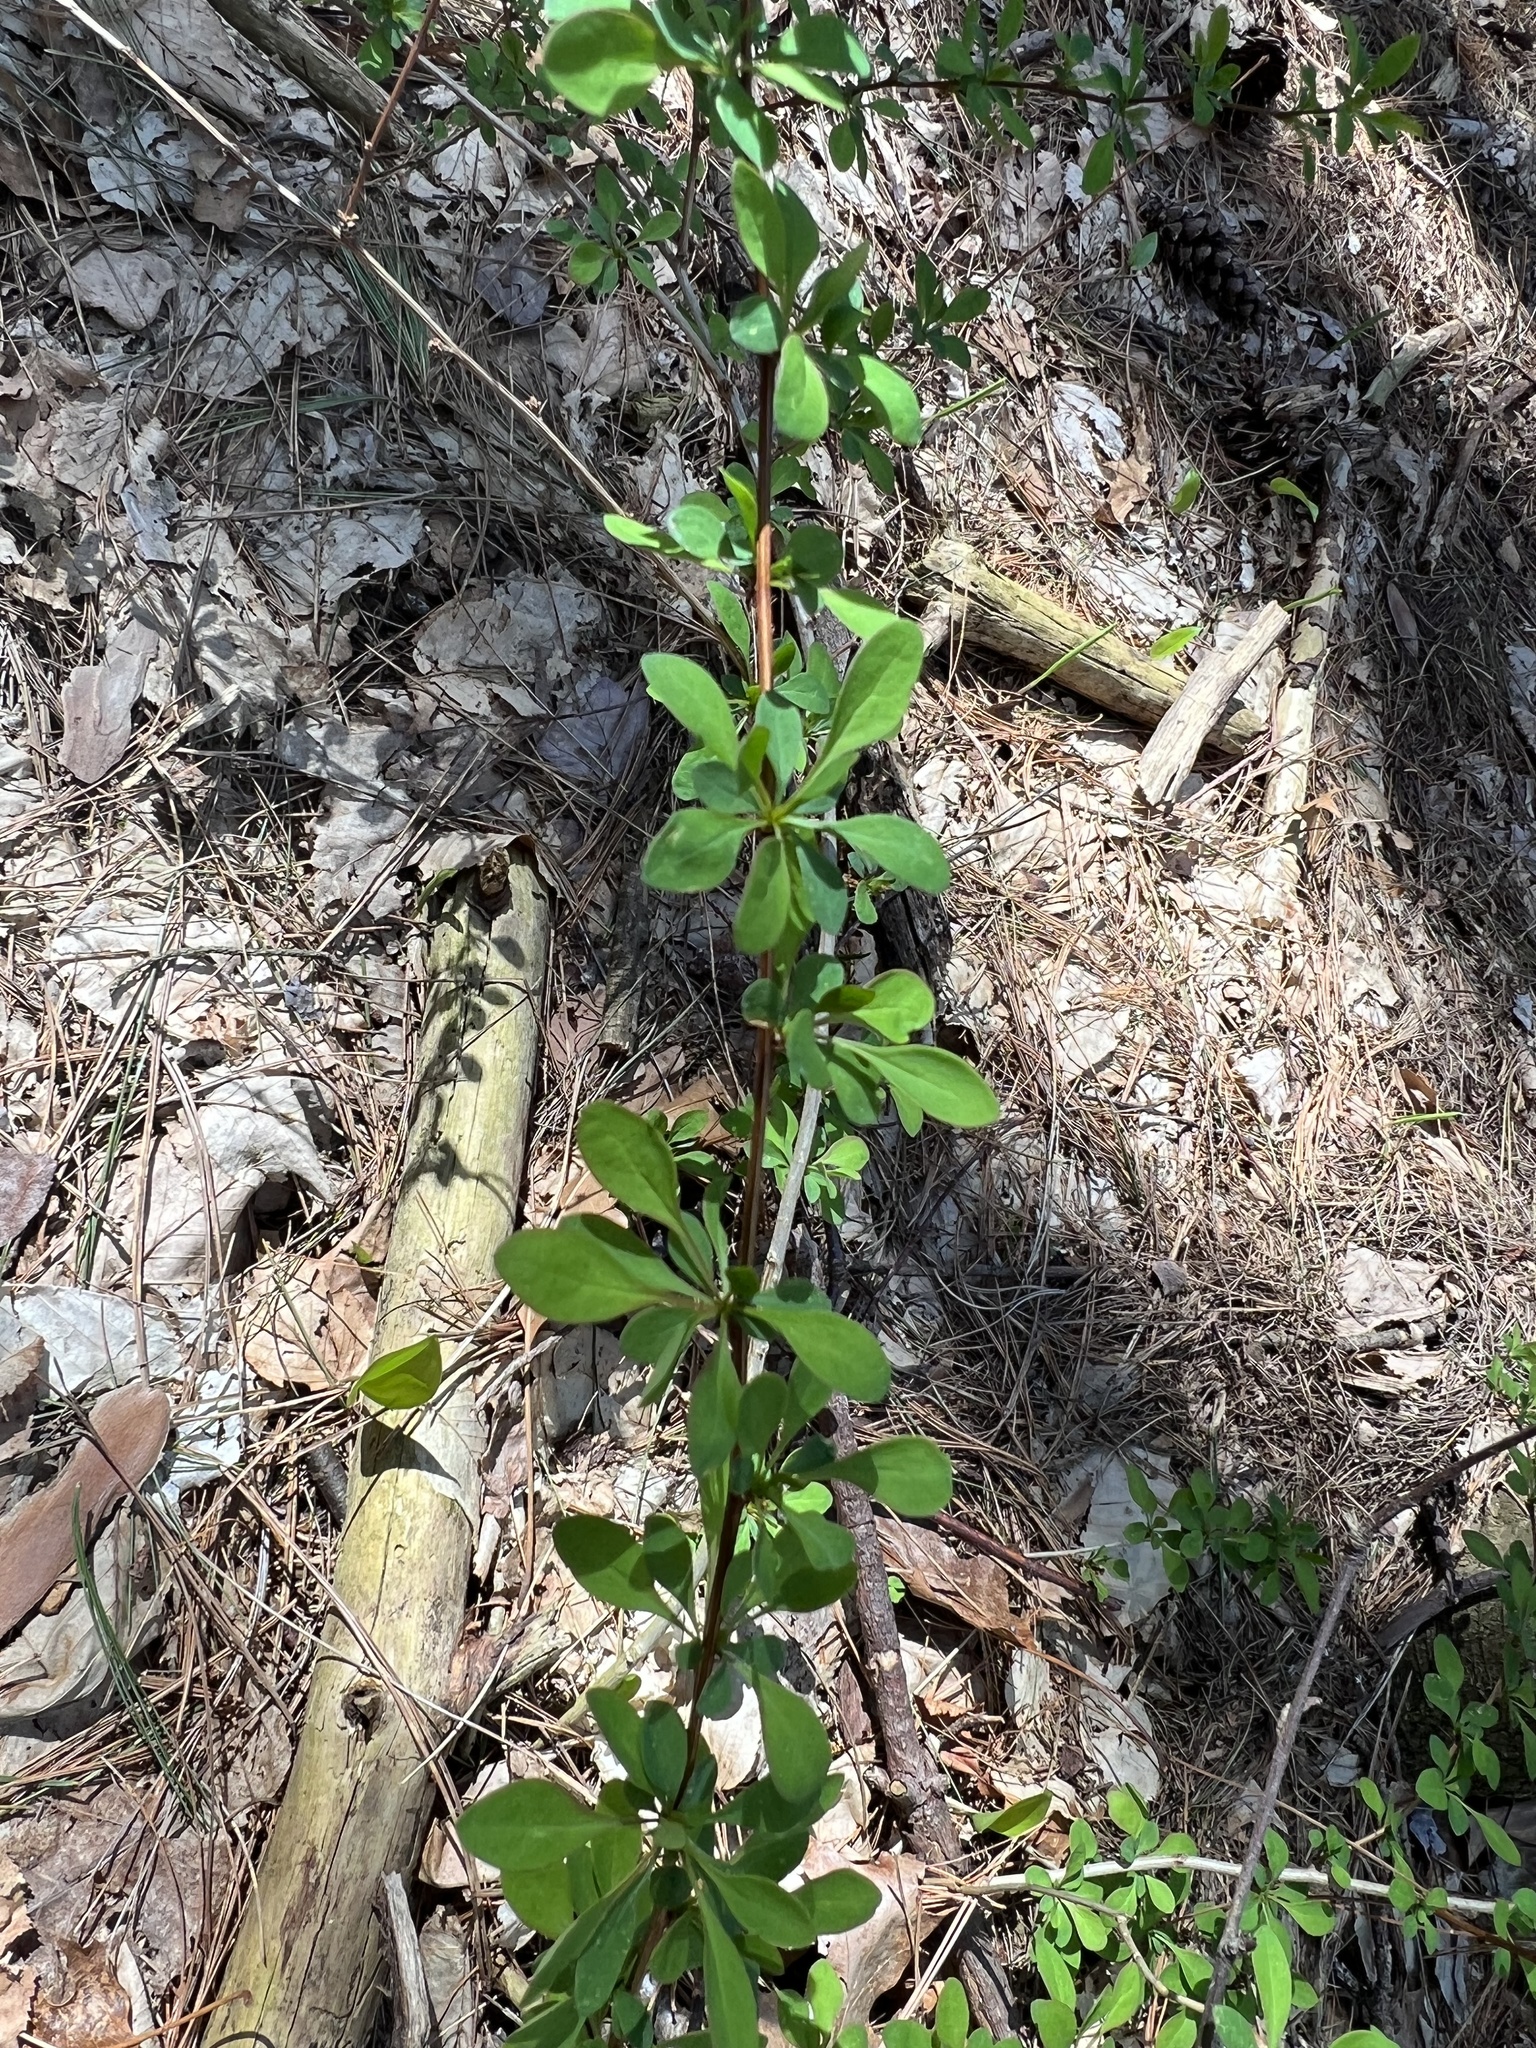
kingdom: Plantae
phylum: Tracheophyta
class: Magnoliopsida
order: Ranunculales
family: Berberidaceae
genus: Berberis
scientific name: Berberis thunbergii
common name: Japanese barberry
